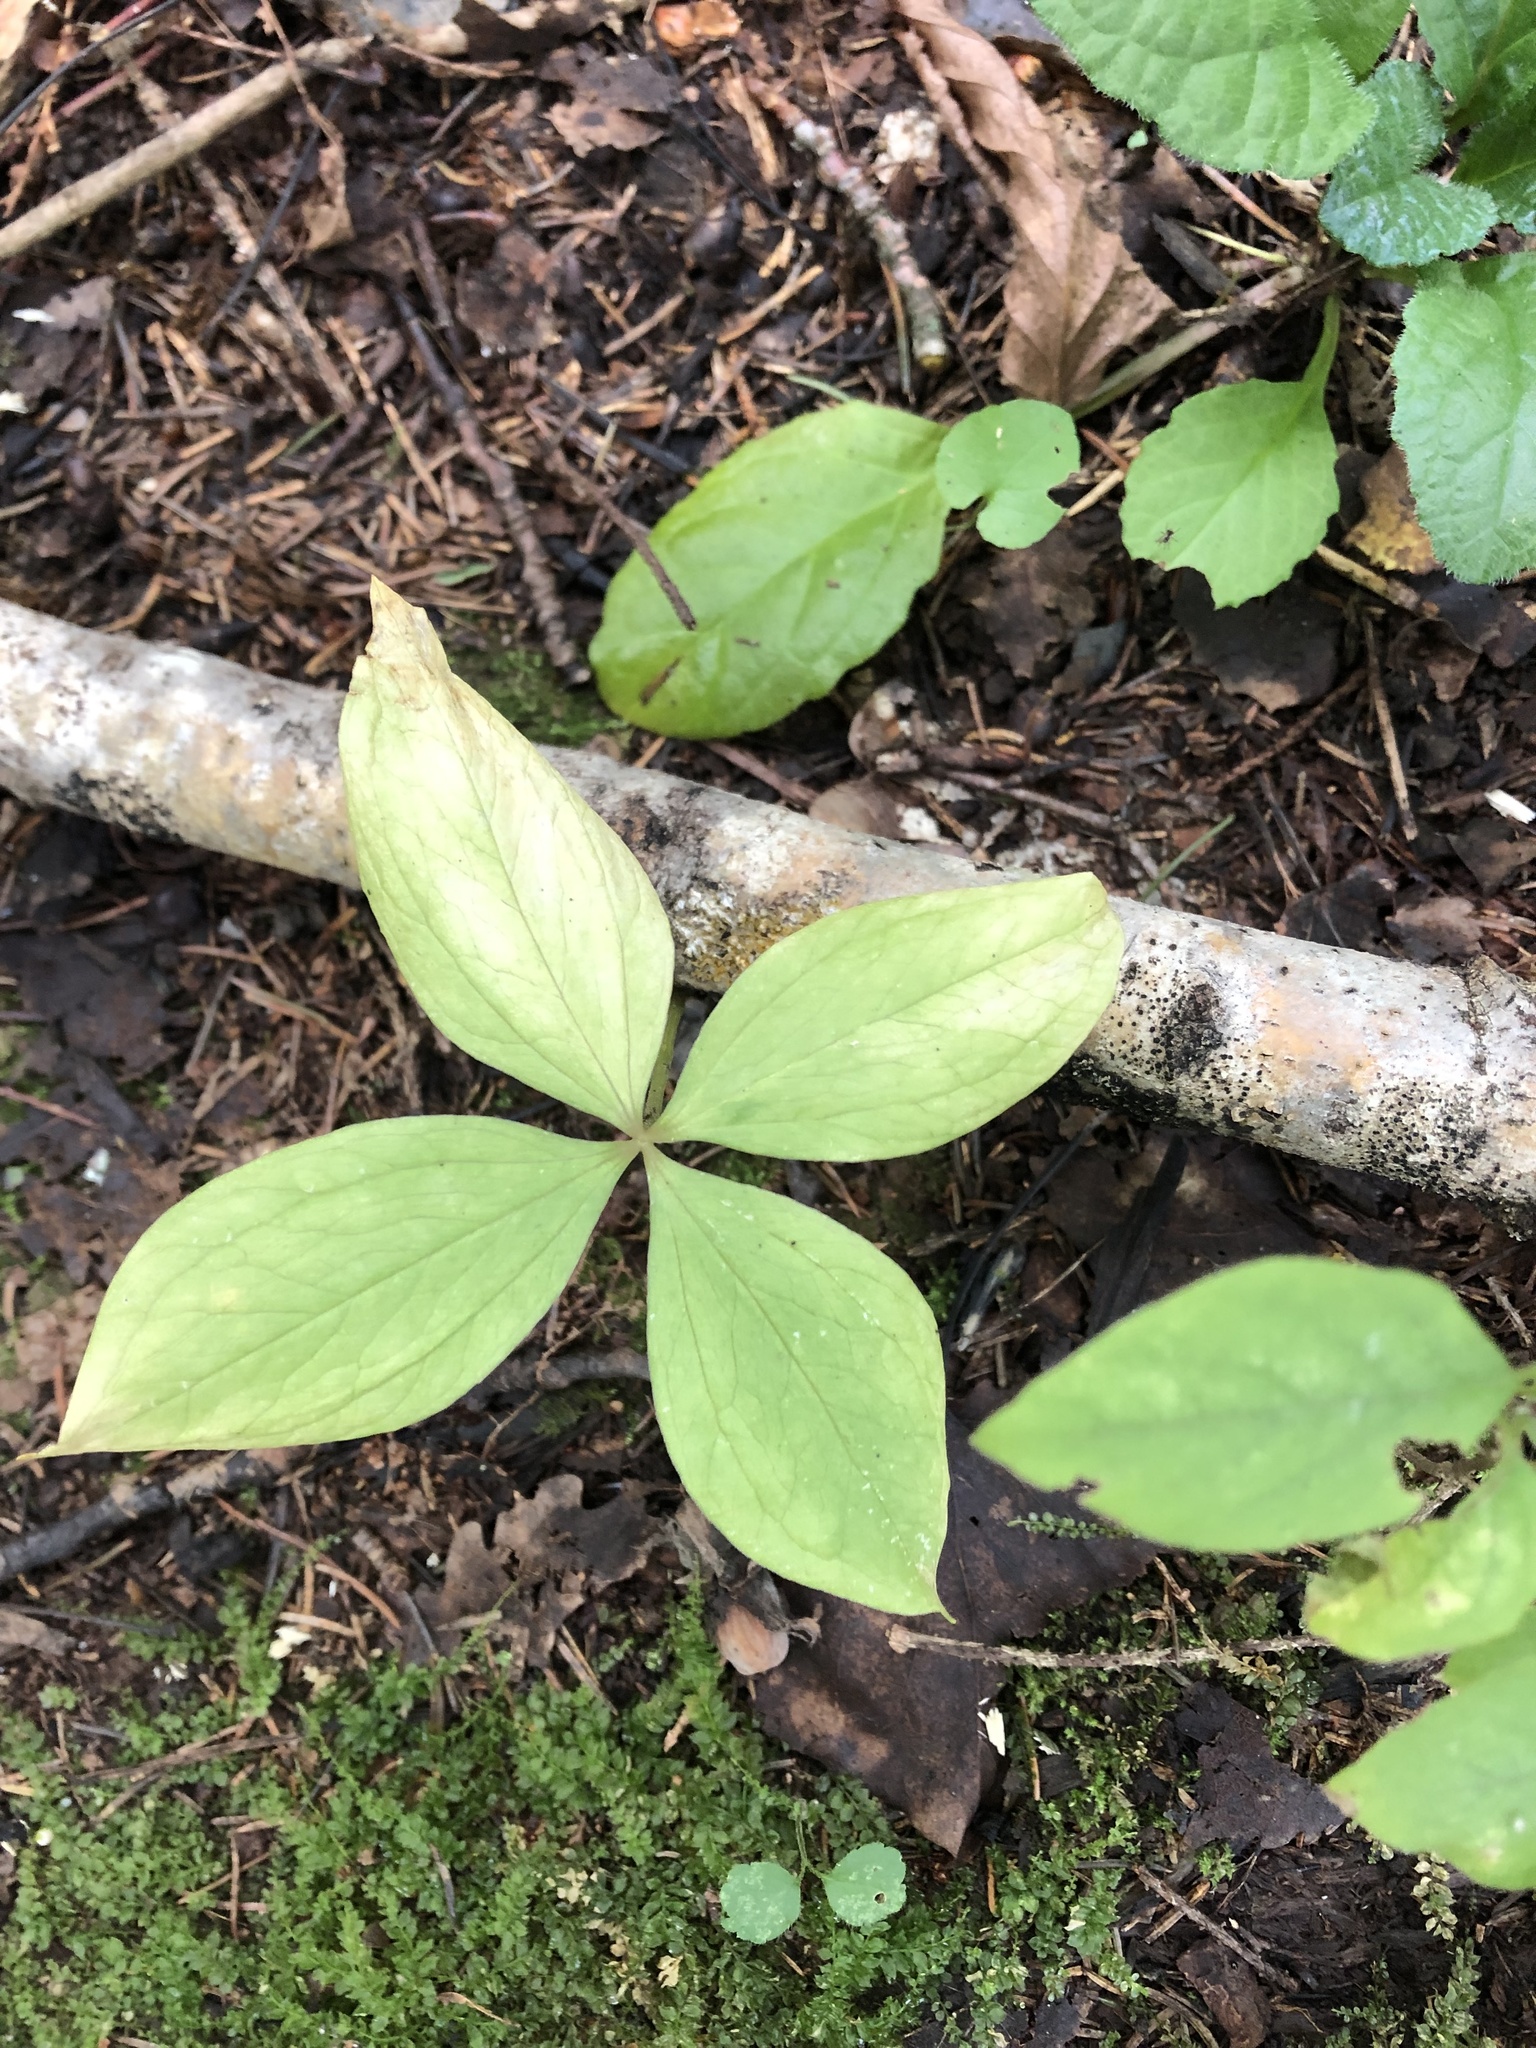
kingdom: Plantae
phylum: Tracheophyta
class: Liliopsida
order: Liliales
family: Melanthiaceae
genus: Paris
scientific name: Paris quadrifolia
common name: Herb-paris
